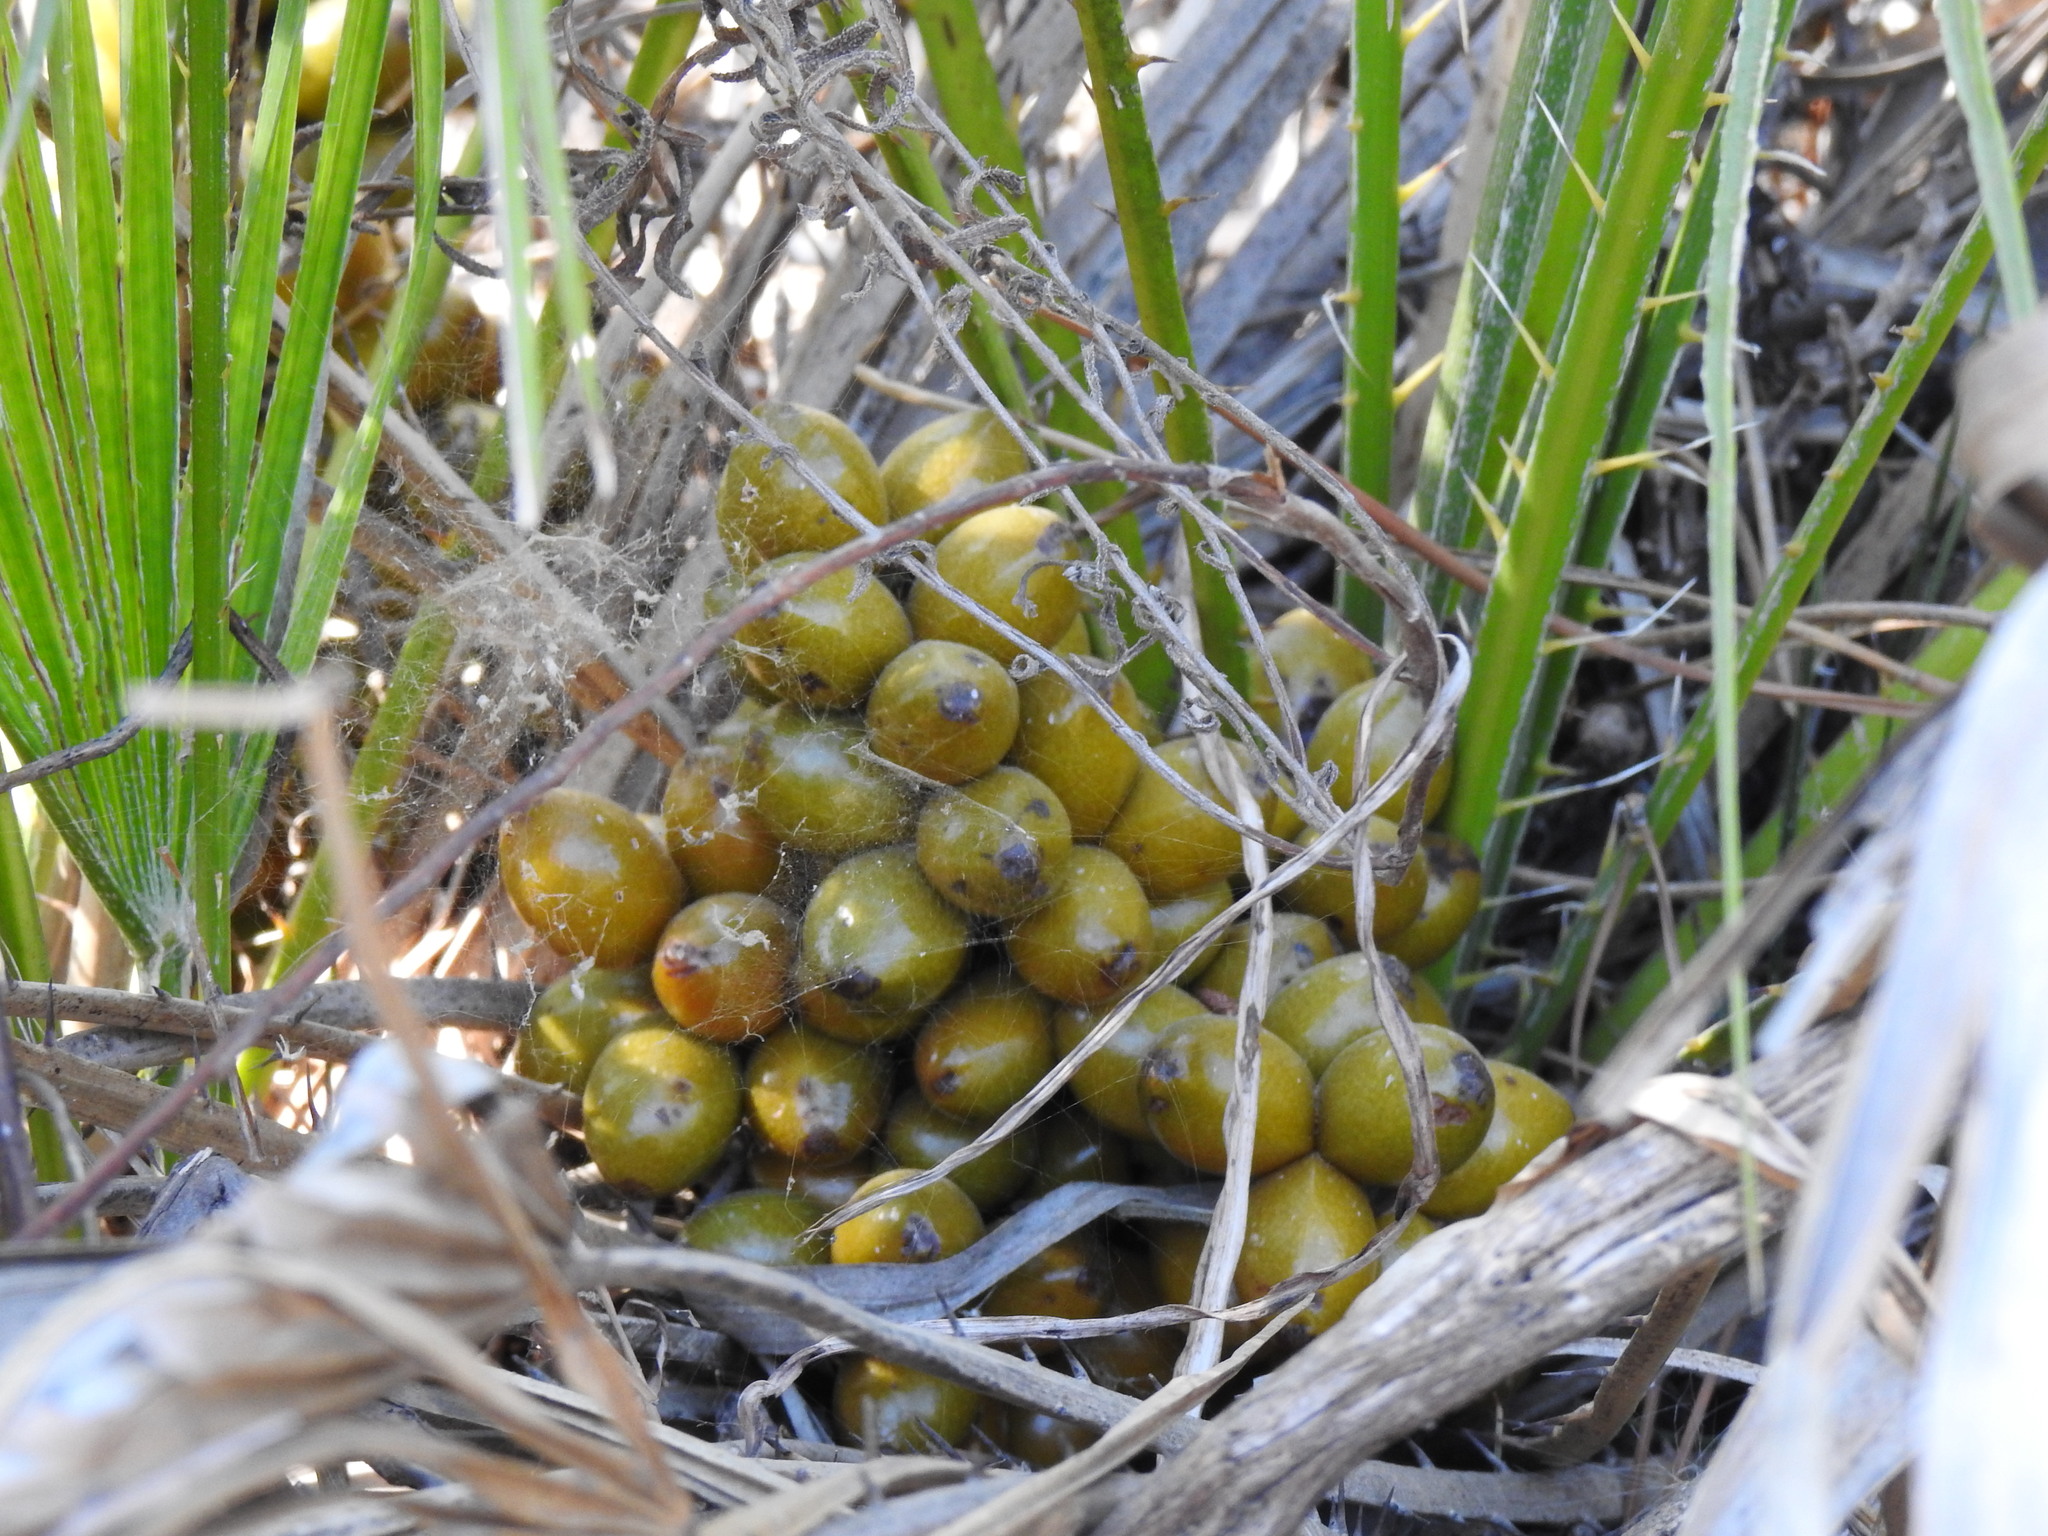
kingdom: Plantae
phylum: Tracheophyta
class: Liliopsida
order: Arecales
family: Arecaceae
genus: Chamaerops
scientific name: Chamaerops humilis
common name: Dwarf fan palm
